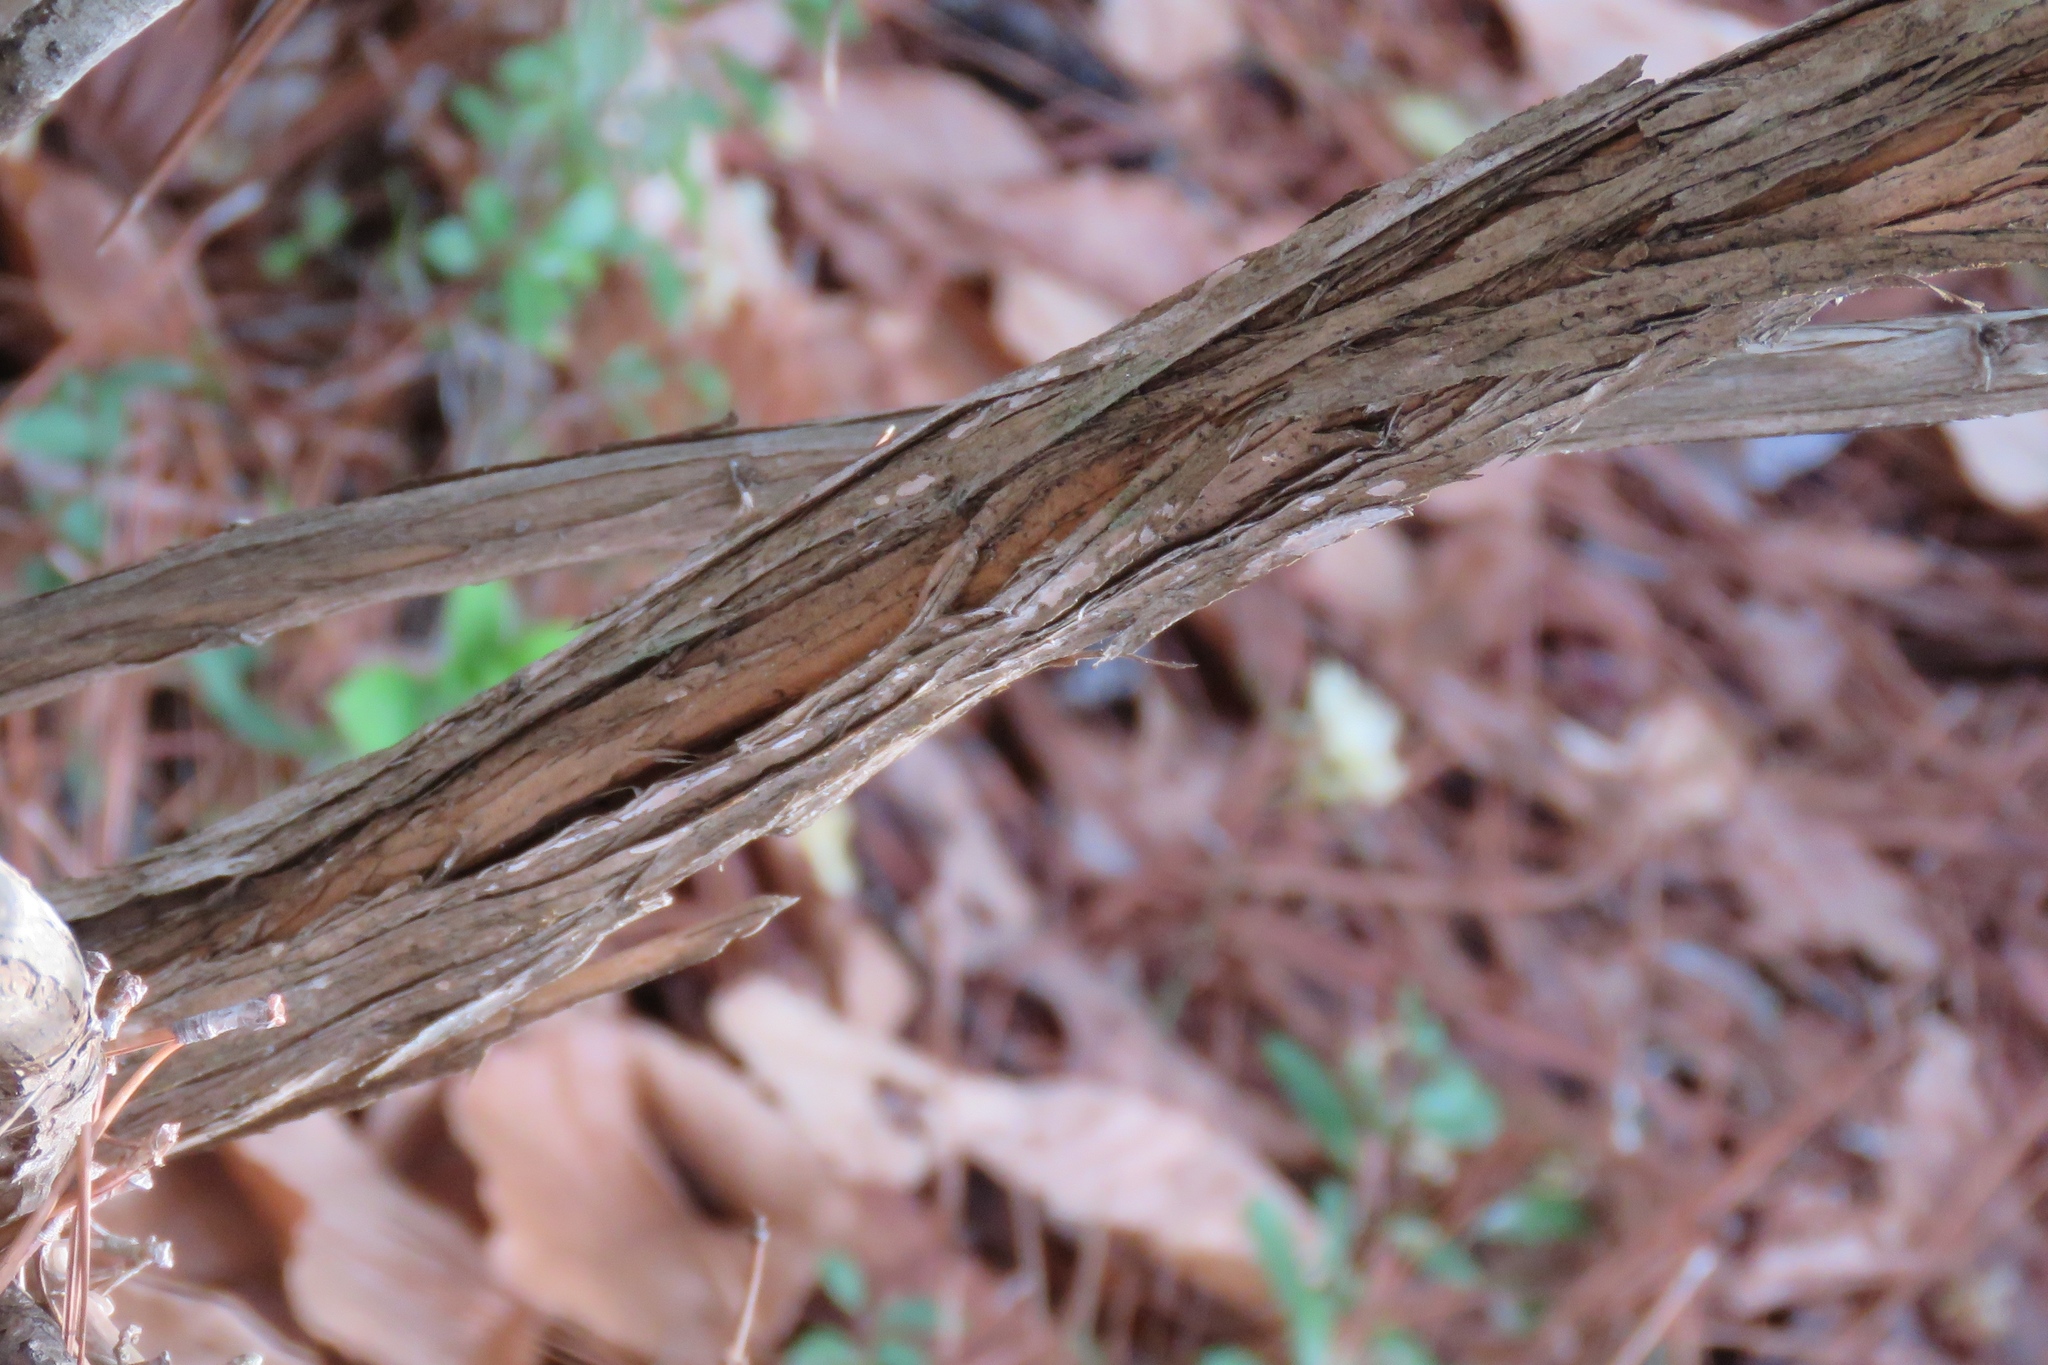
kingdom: Plantae
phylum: Tracheophyta
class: Magnoliopsida
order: Dipsacales
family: Caprifoliaceae
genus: Lonicera
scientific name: Lonicera fragrantissima
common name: Fragrant honeysuckle
